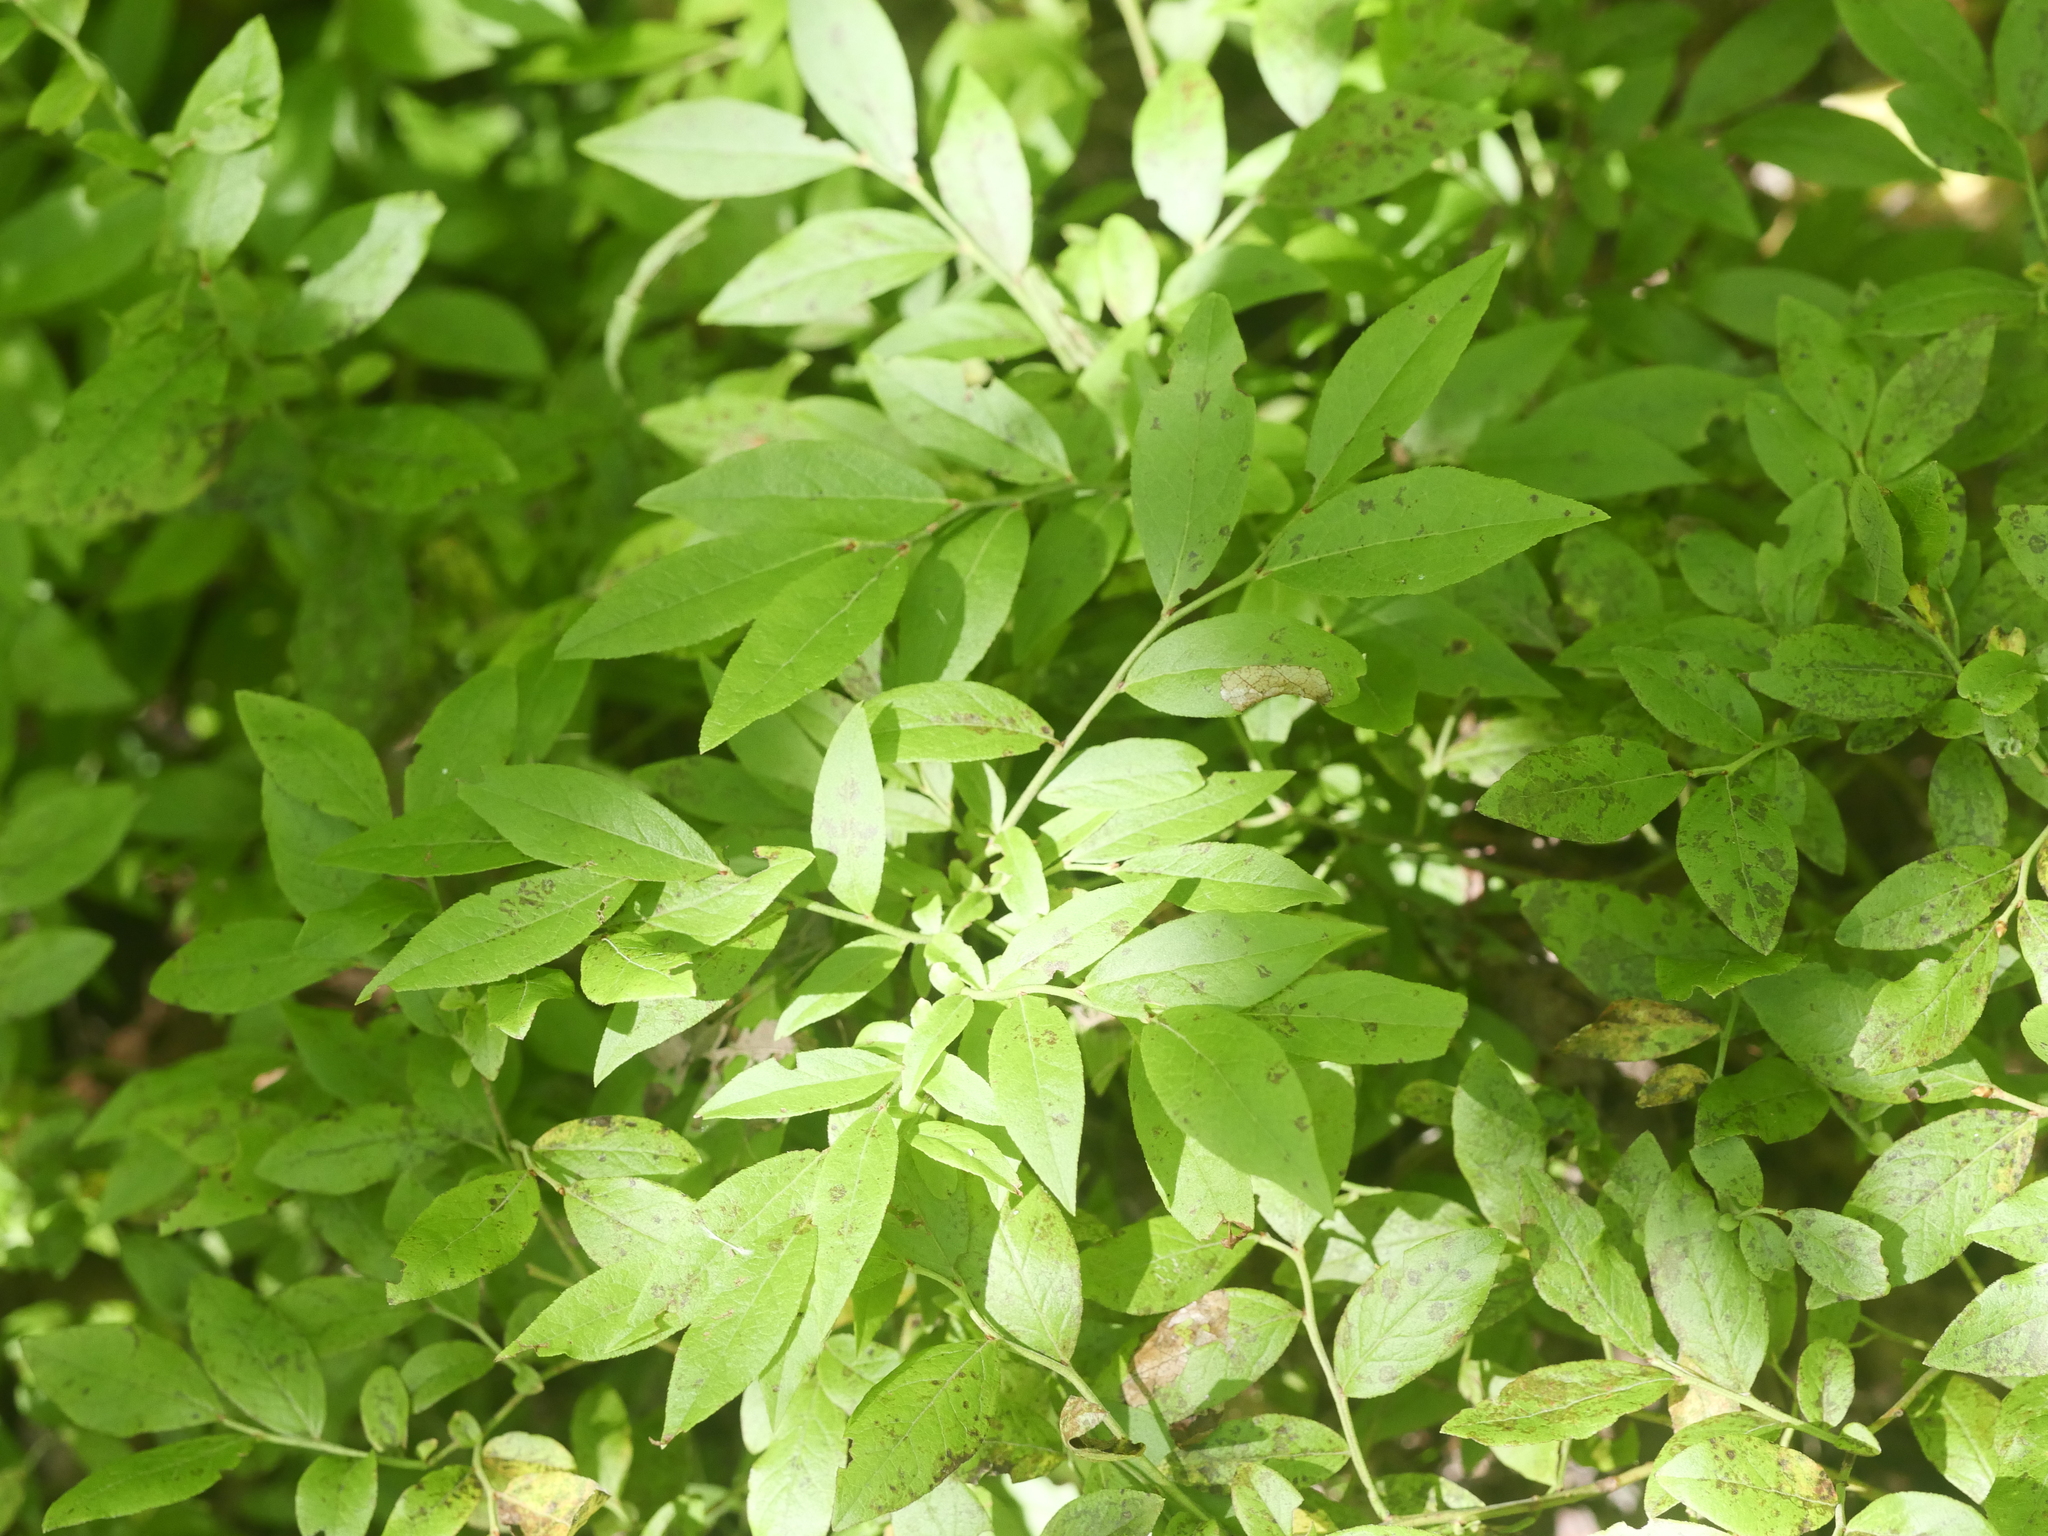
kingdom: Plantae
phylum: Tracheophyta
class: Magnoliopsida
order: Ericales
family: Ericaceae
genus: Vaccinium
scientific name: Vaccinium angustifolium
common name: Early lowbush blueberry
